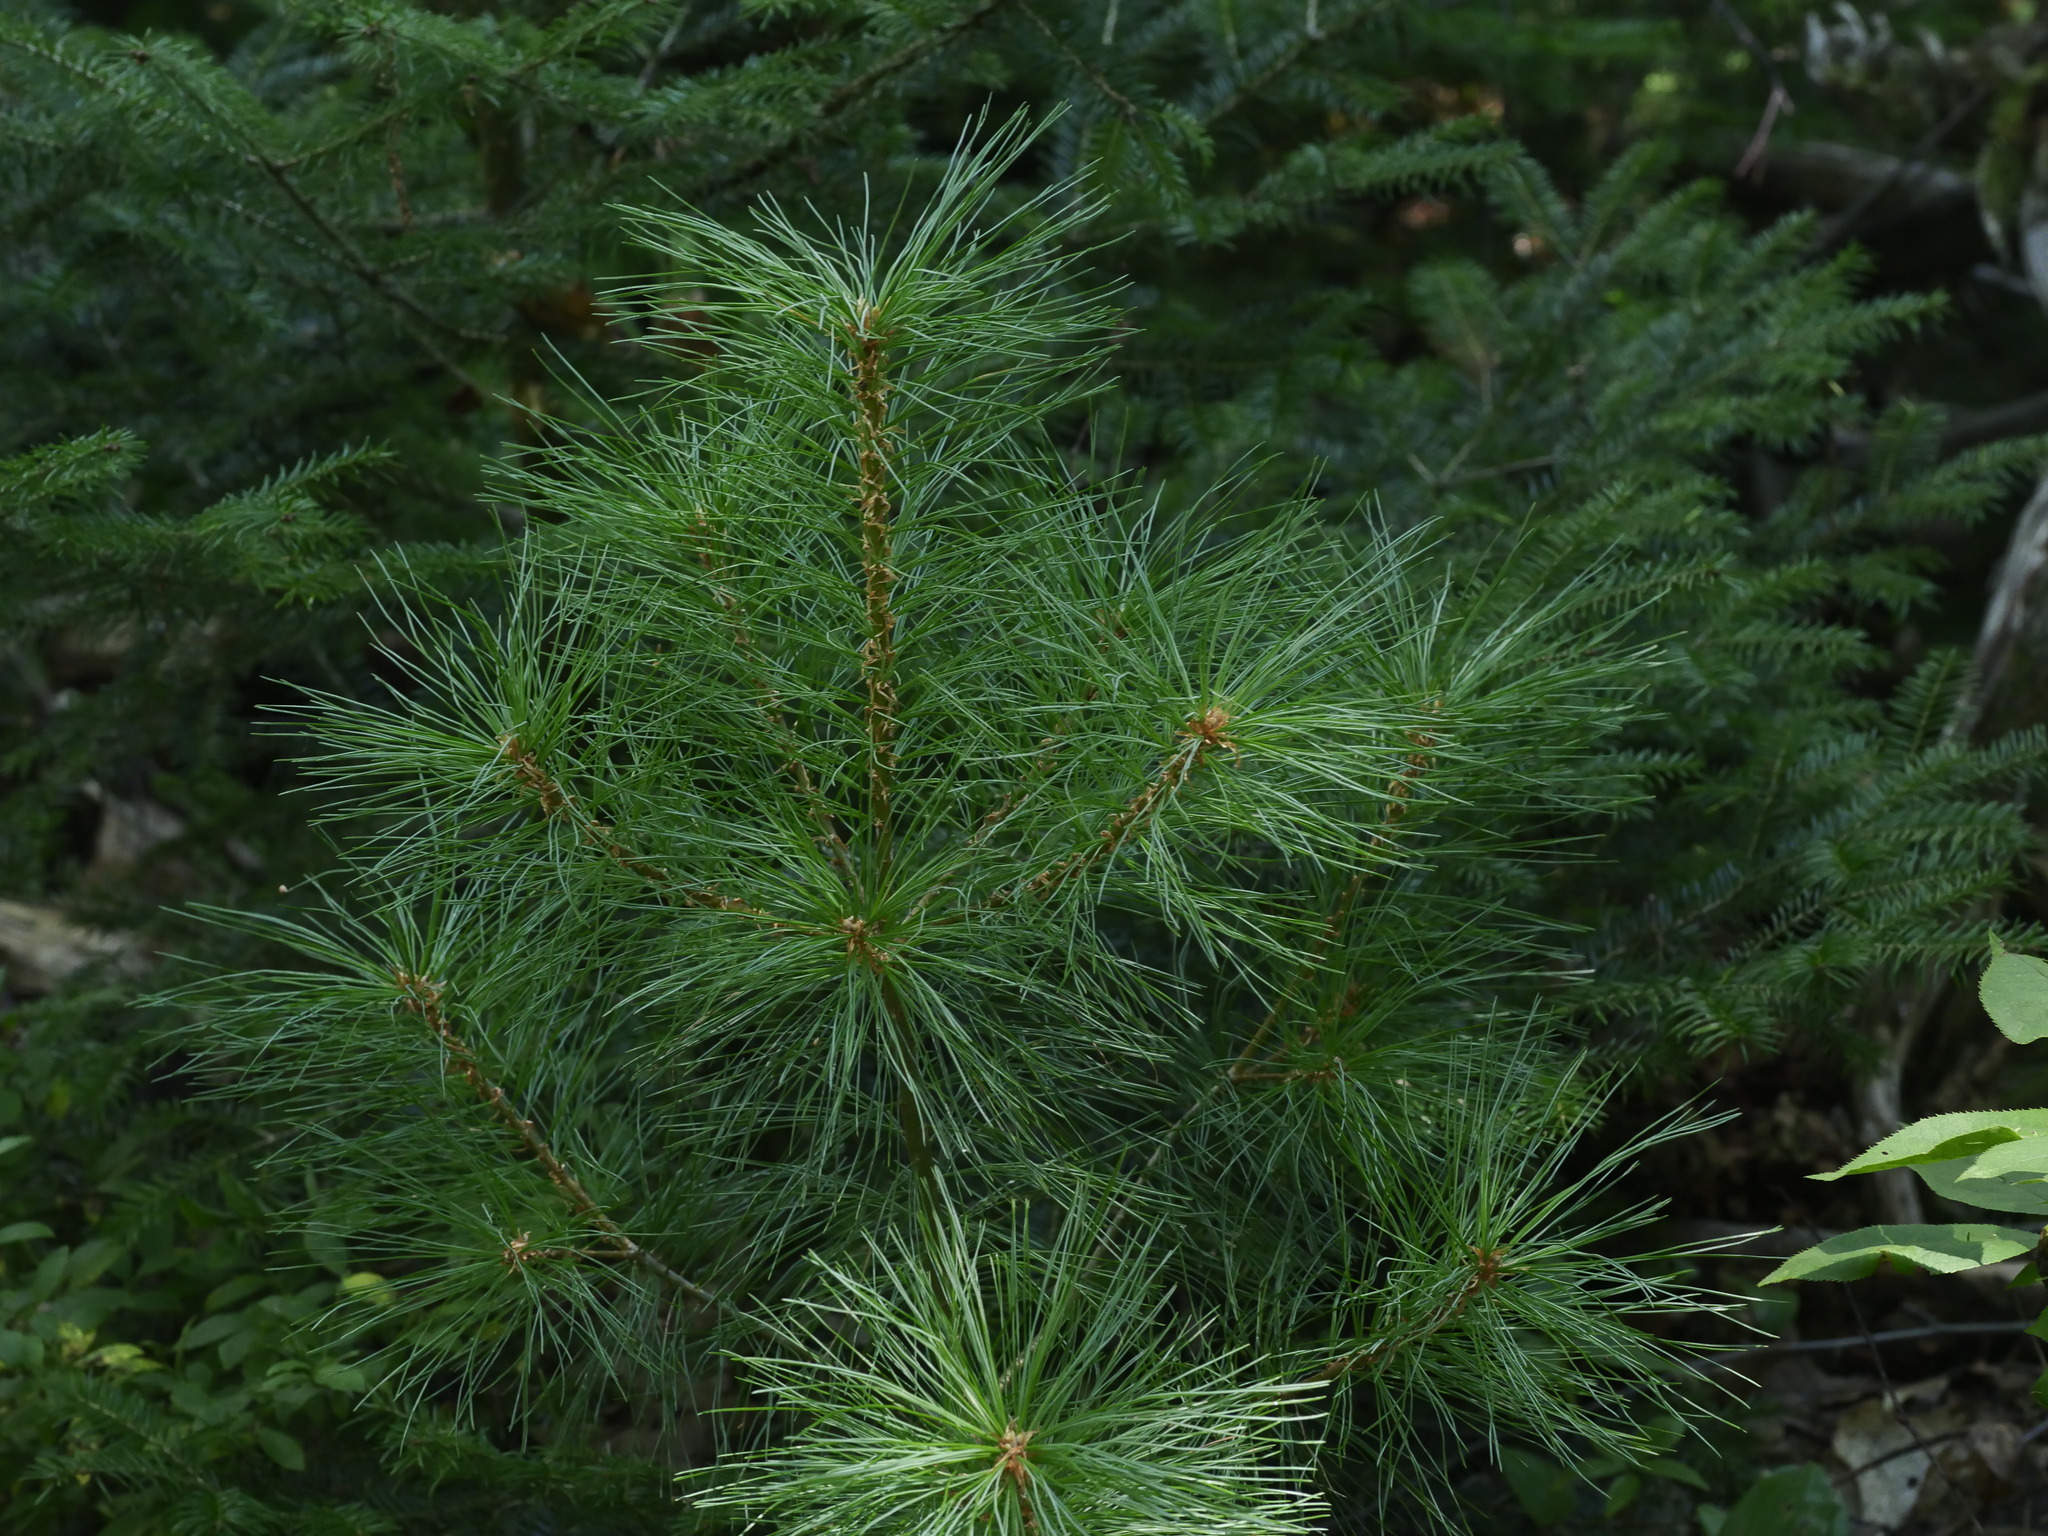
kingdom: Plantae
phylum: Tracheophyta
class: Pinopsida
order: Pinales
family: Pinaceae
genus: Pinus
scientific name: Pinus strobus
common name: Weymouth pine
